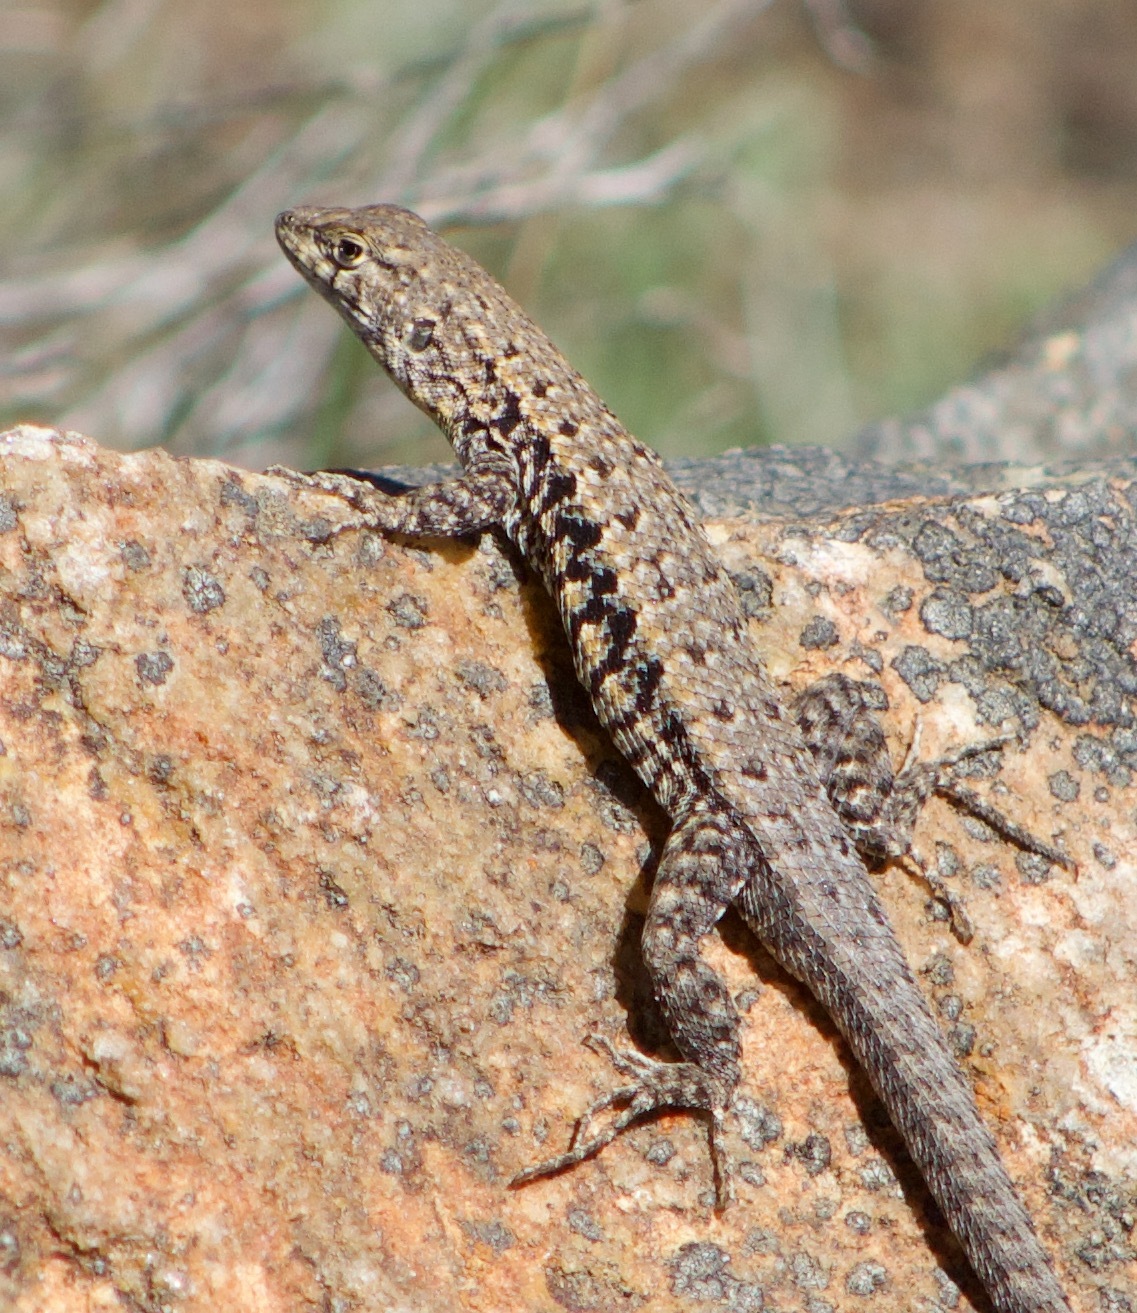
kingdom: Animalia
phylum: Chordata
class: Squamata
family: Liolaemidae
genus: Liolaemus
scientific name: Liolaemus platei
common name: Braided tree iguana
